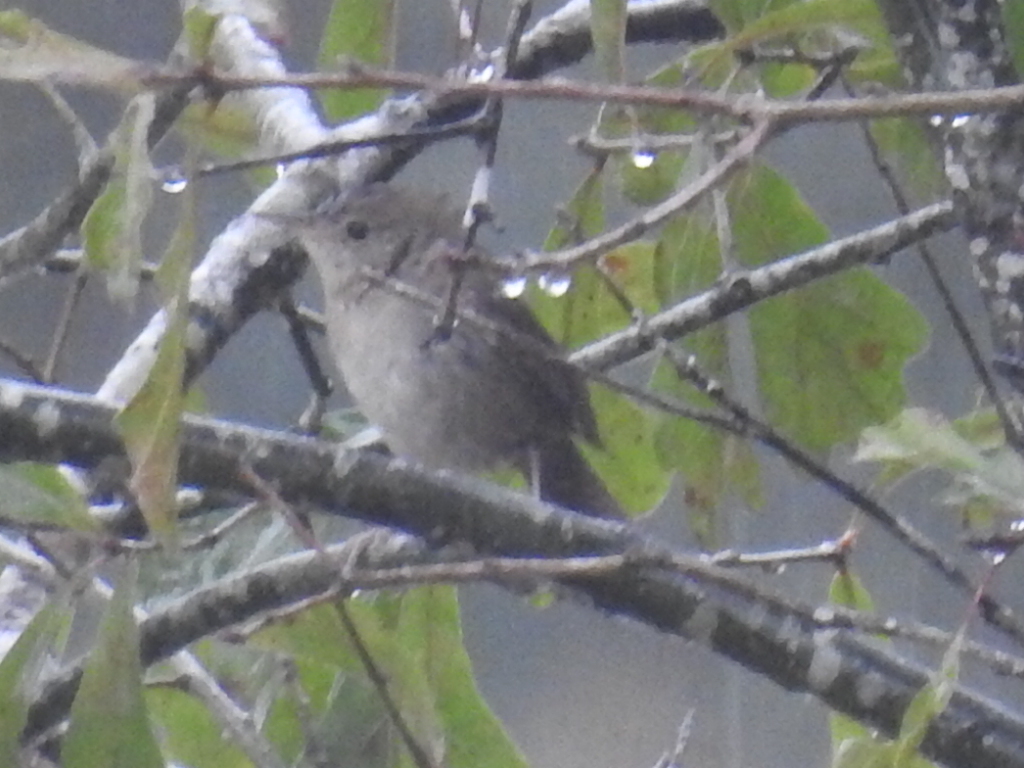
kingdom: Animalia
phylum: Chordata
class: Aves
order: Passeriformes
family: Troglodytidae
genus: Troglodytes
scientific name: Troglodytes aedon
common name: House wren
